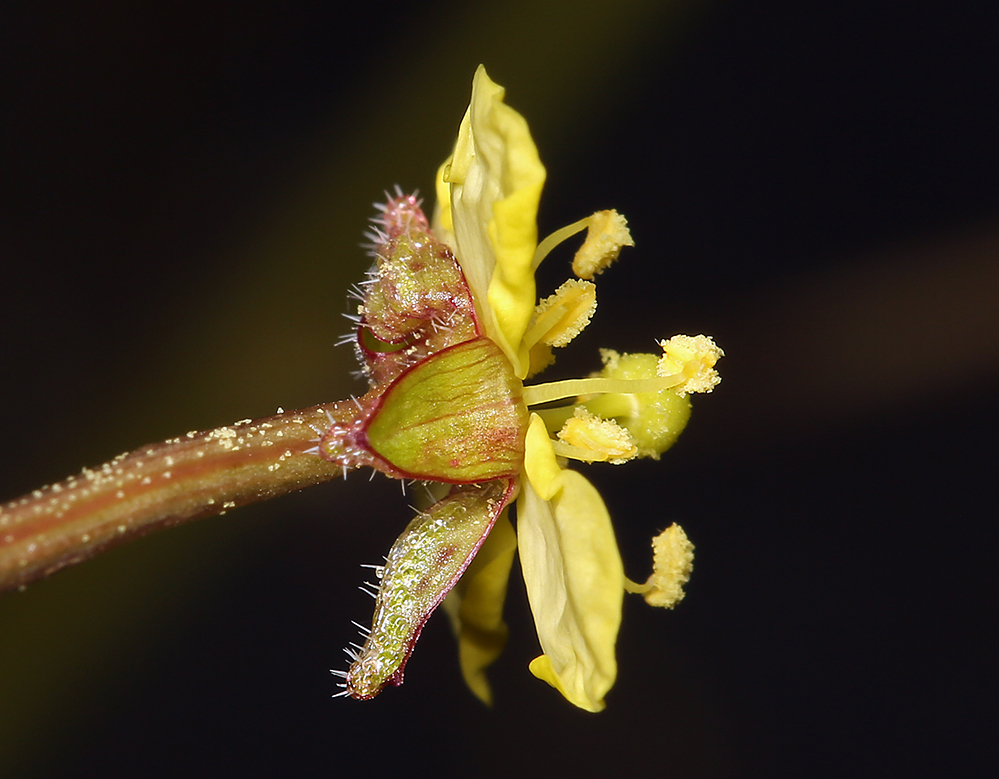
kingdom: Plantae
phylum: Tracheophyta
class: Magnoliopsida
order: Myrtales
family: Onagraceae
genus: Chylismia
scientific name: Chylismia walkeri
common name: Walker's suncup
